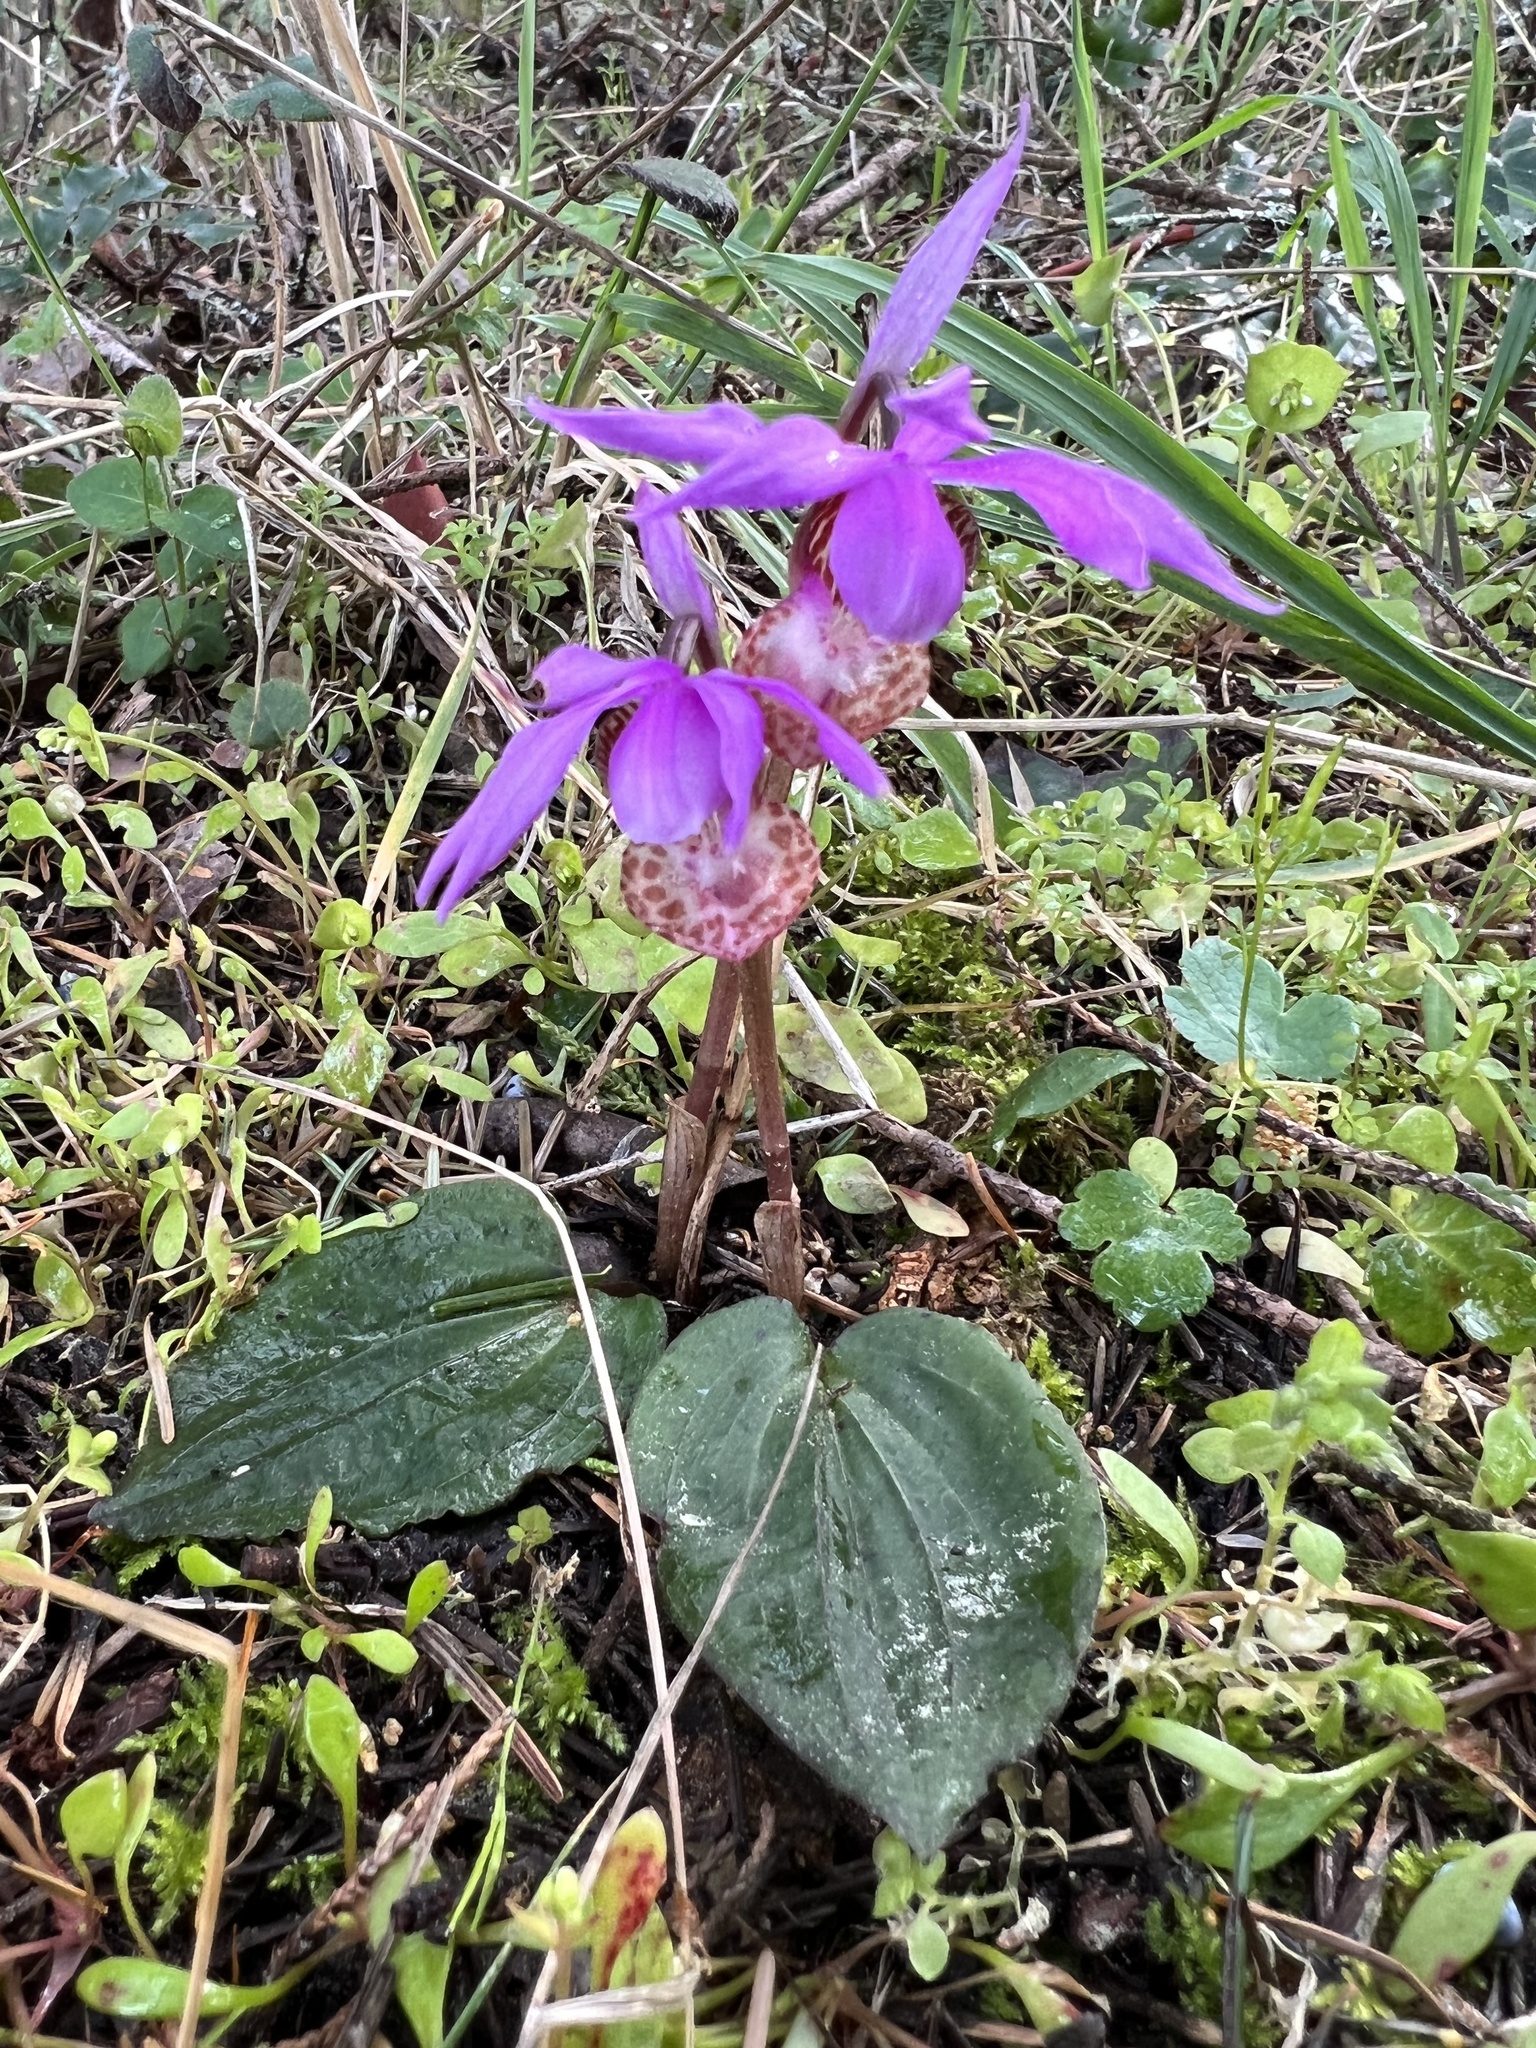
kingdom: Plantae
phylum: Tracheophyta
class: Liliopsida
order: Asparagales
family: Orchidaceae
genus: Calypso
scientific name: Calypso bulbosa
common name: Calypso
